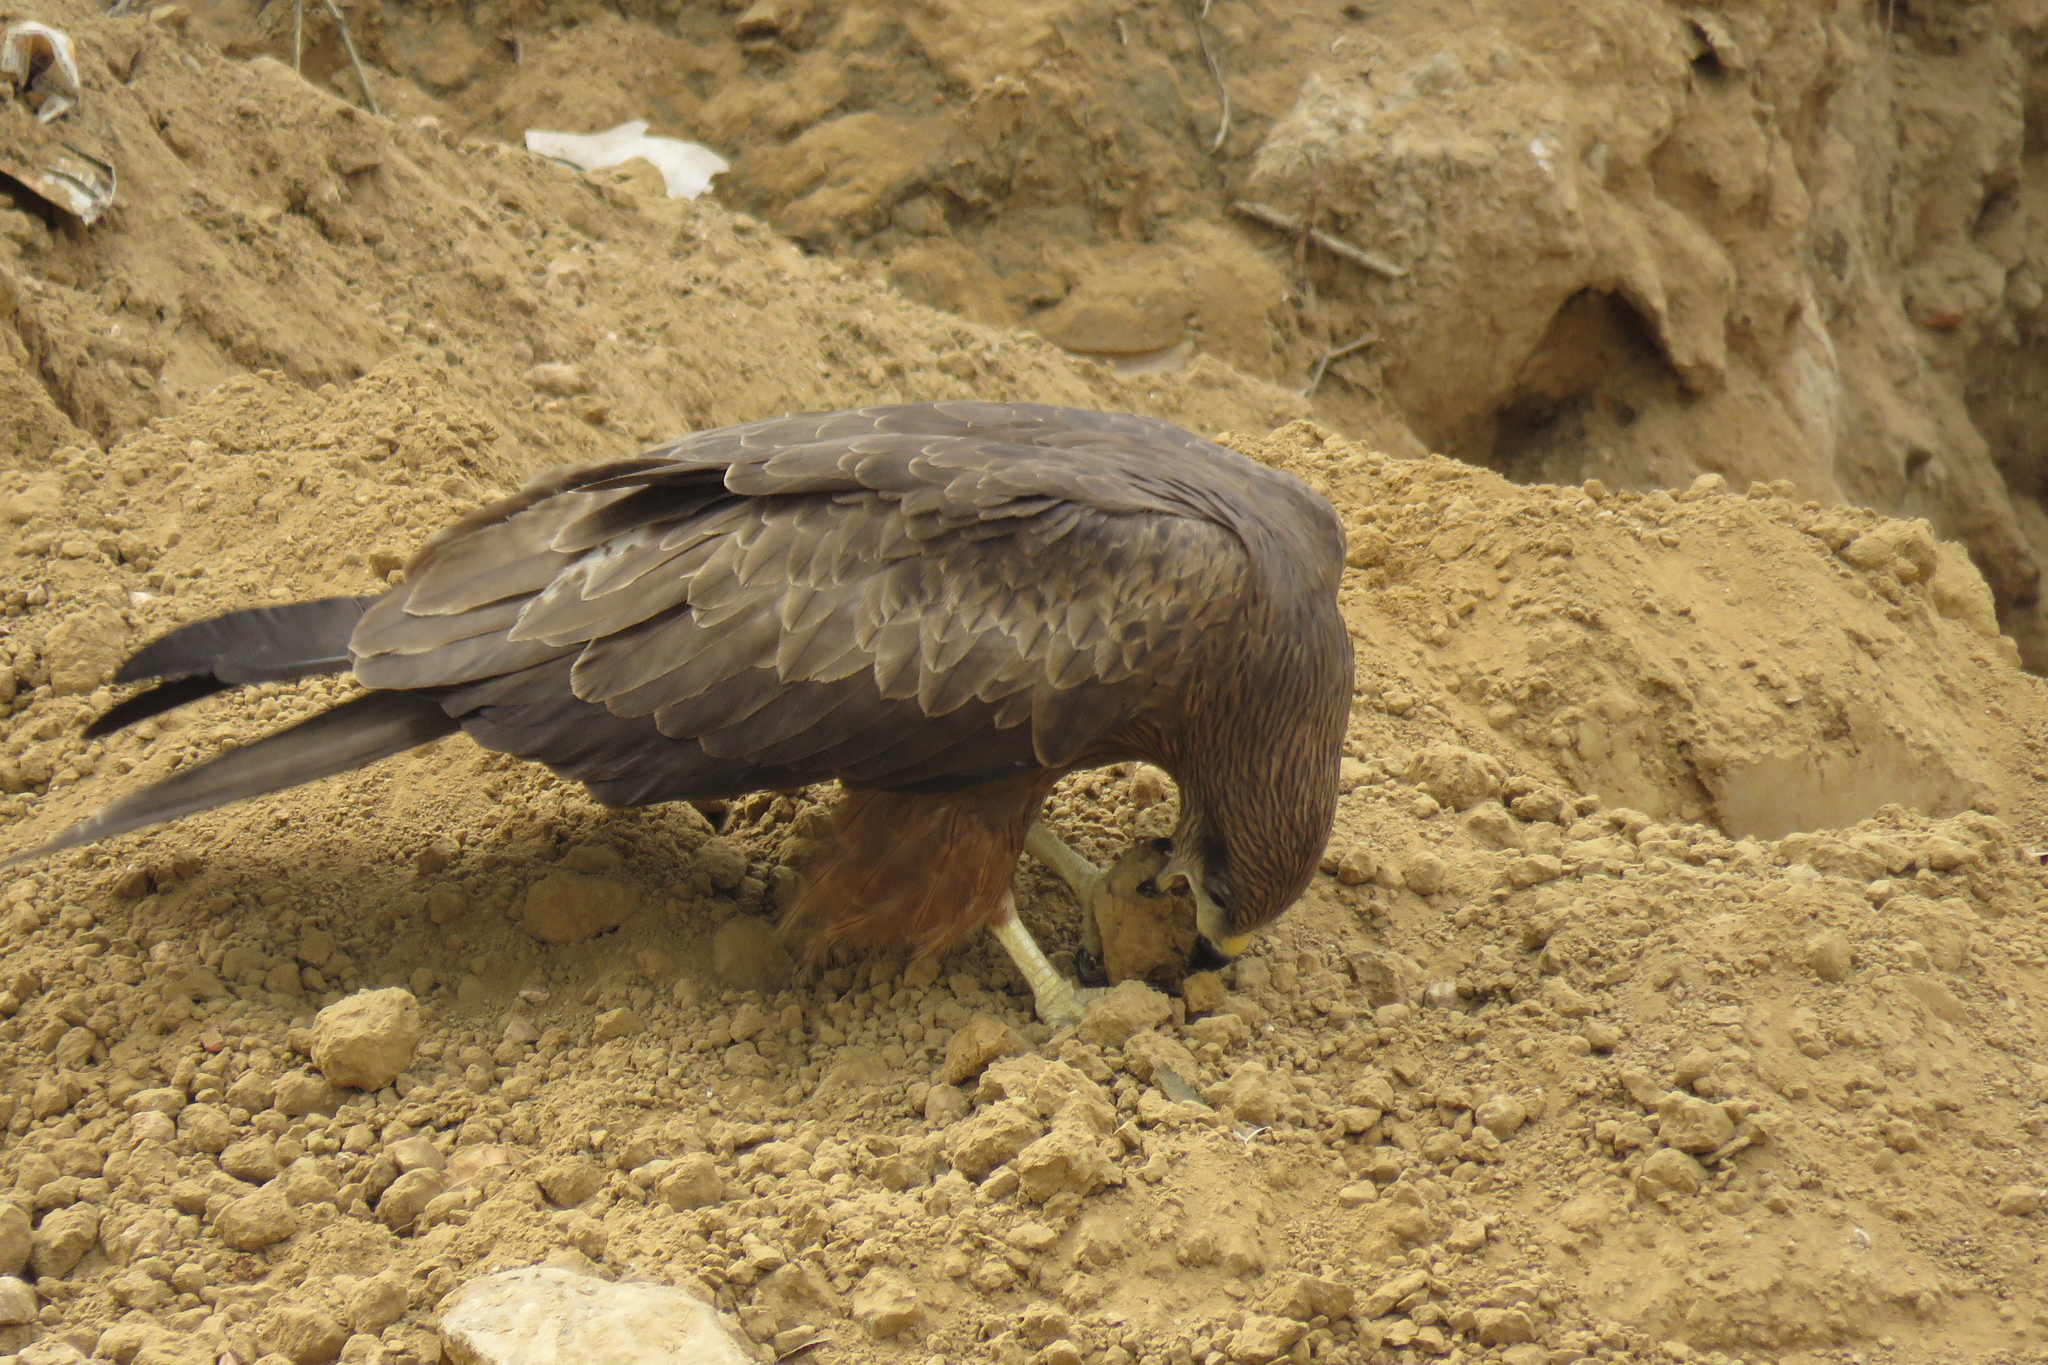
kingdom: Animalia
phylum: Chordata
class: Aves
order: Accipitriformes
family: Accipitridae
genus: Milvus
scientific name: Milvus migrans
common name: Black kite
